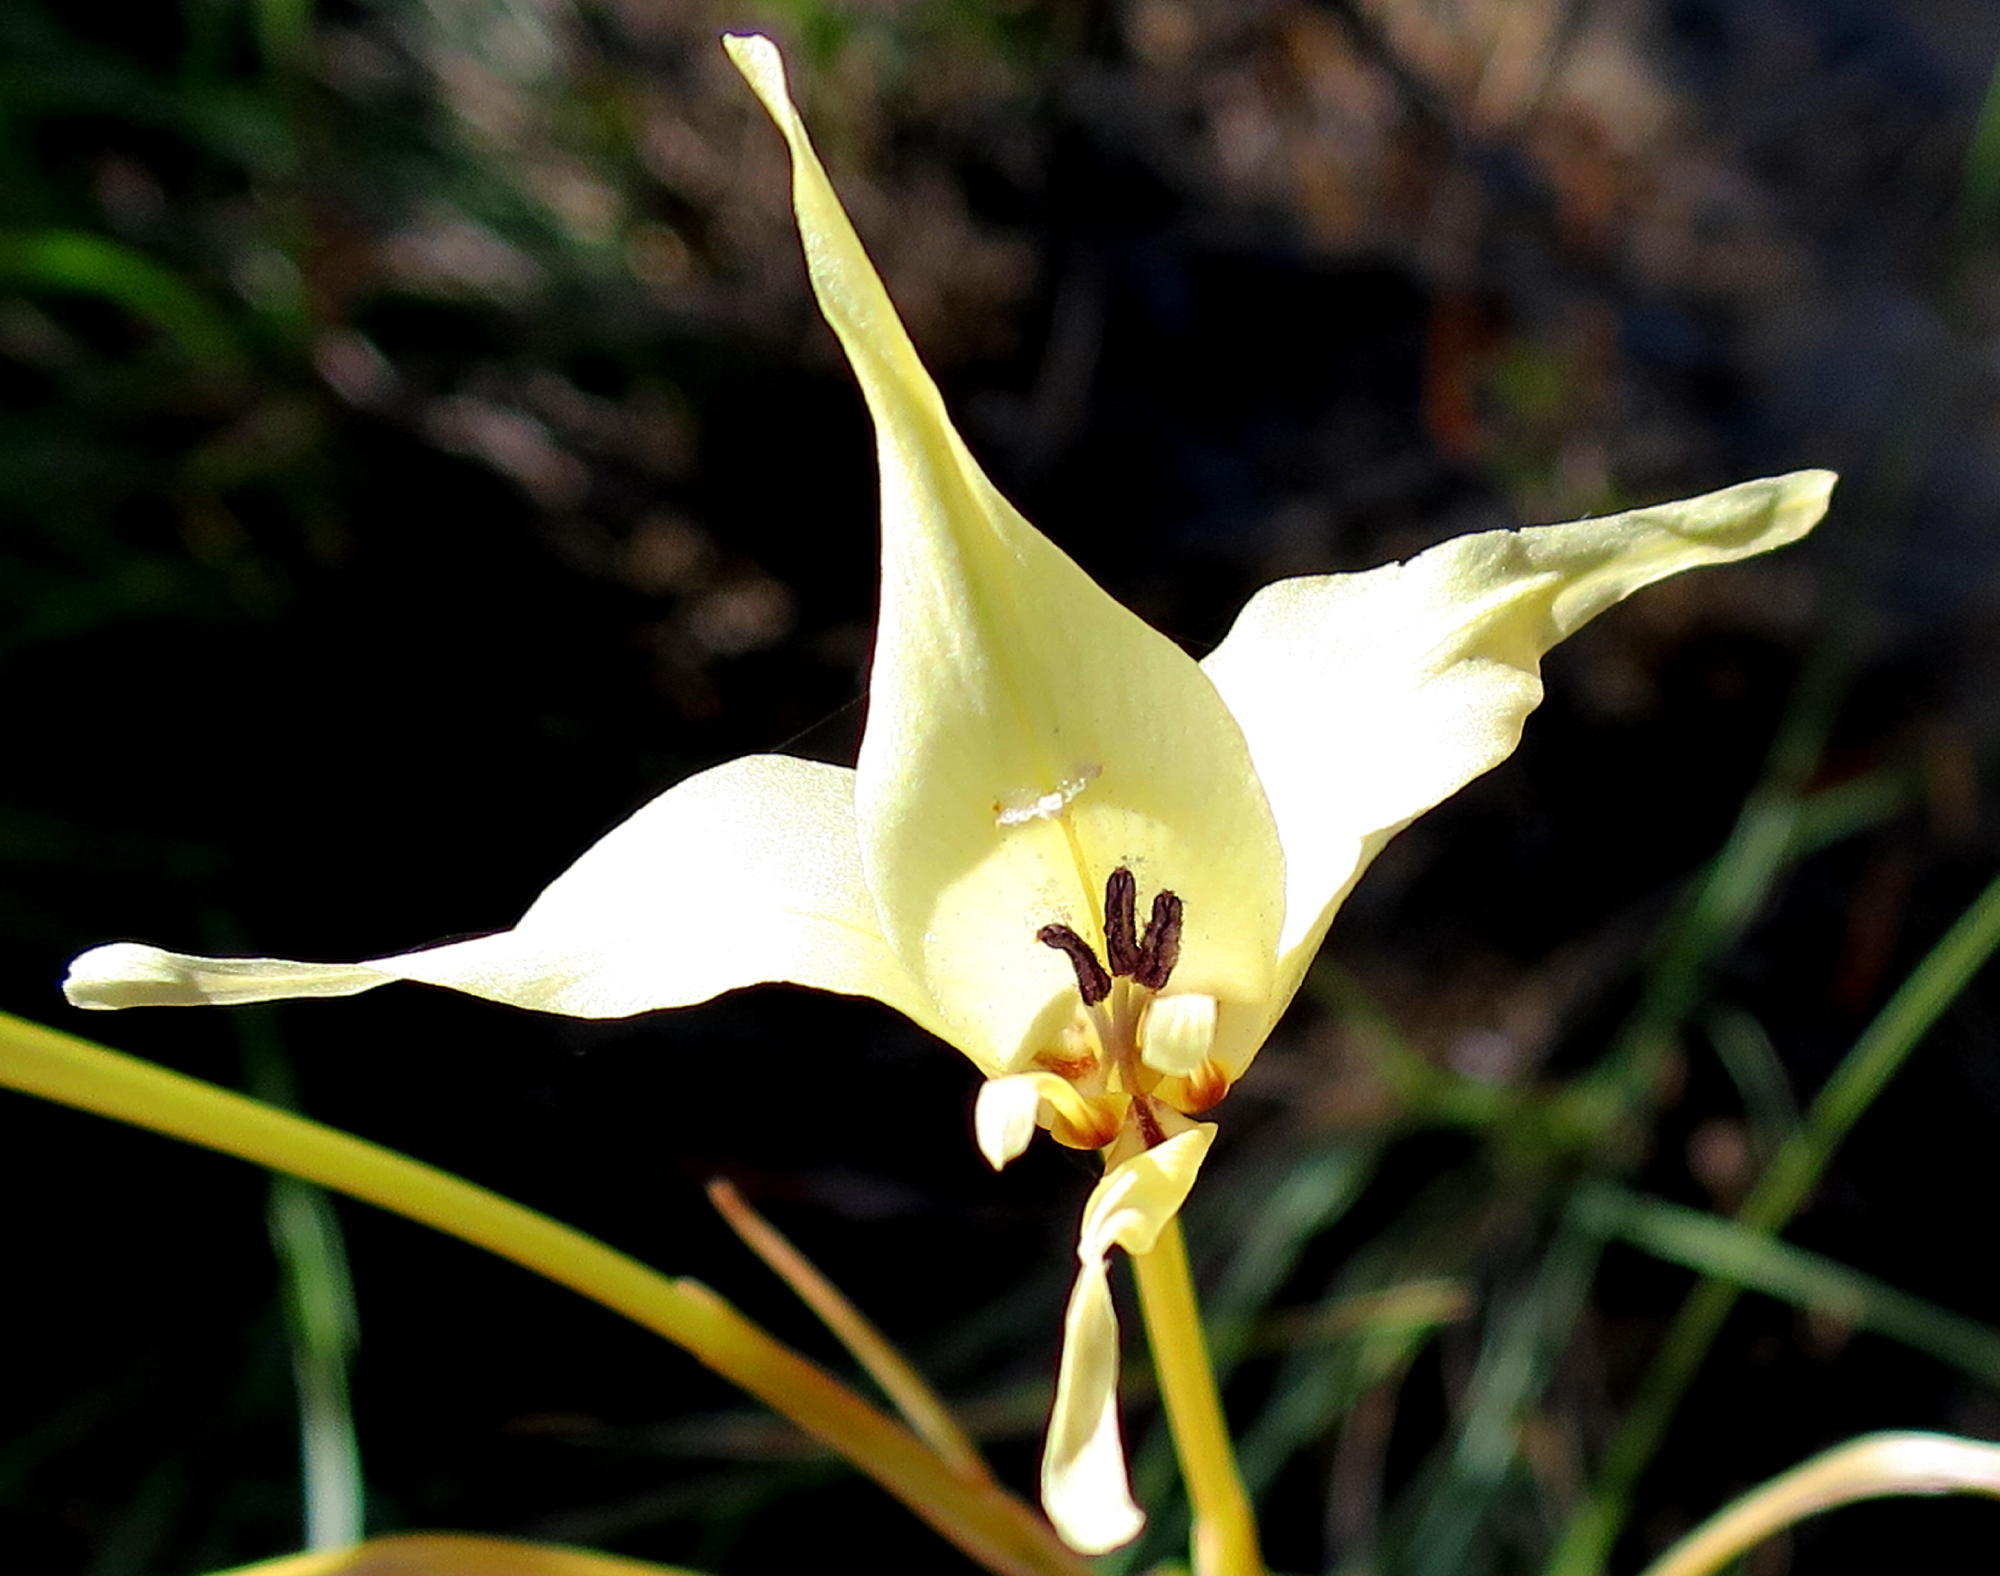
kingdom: Plantae
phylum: Tracheophyta
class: Liliopsida
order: Asparagales
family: Iridaceae
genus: Gladiolus
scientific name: Gladiolus leptosiphon
